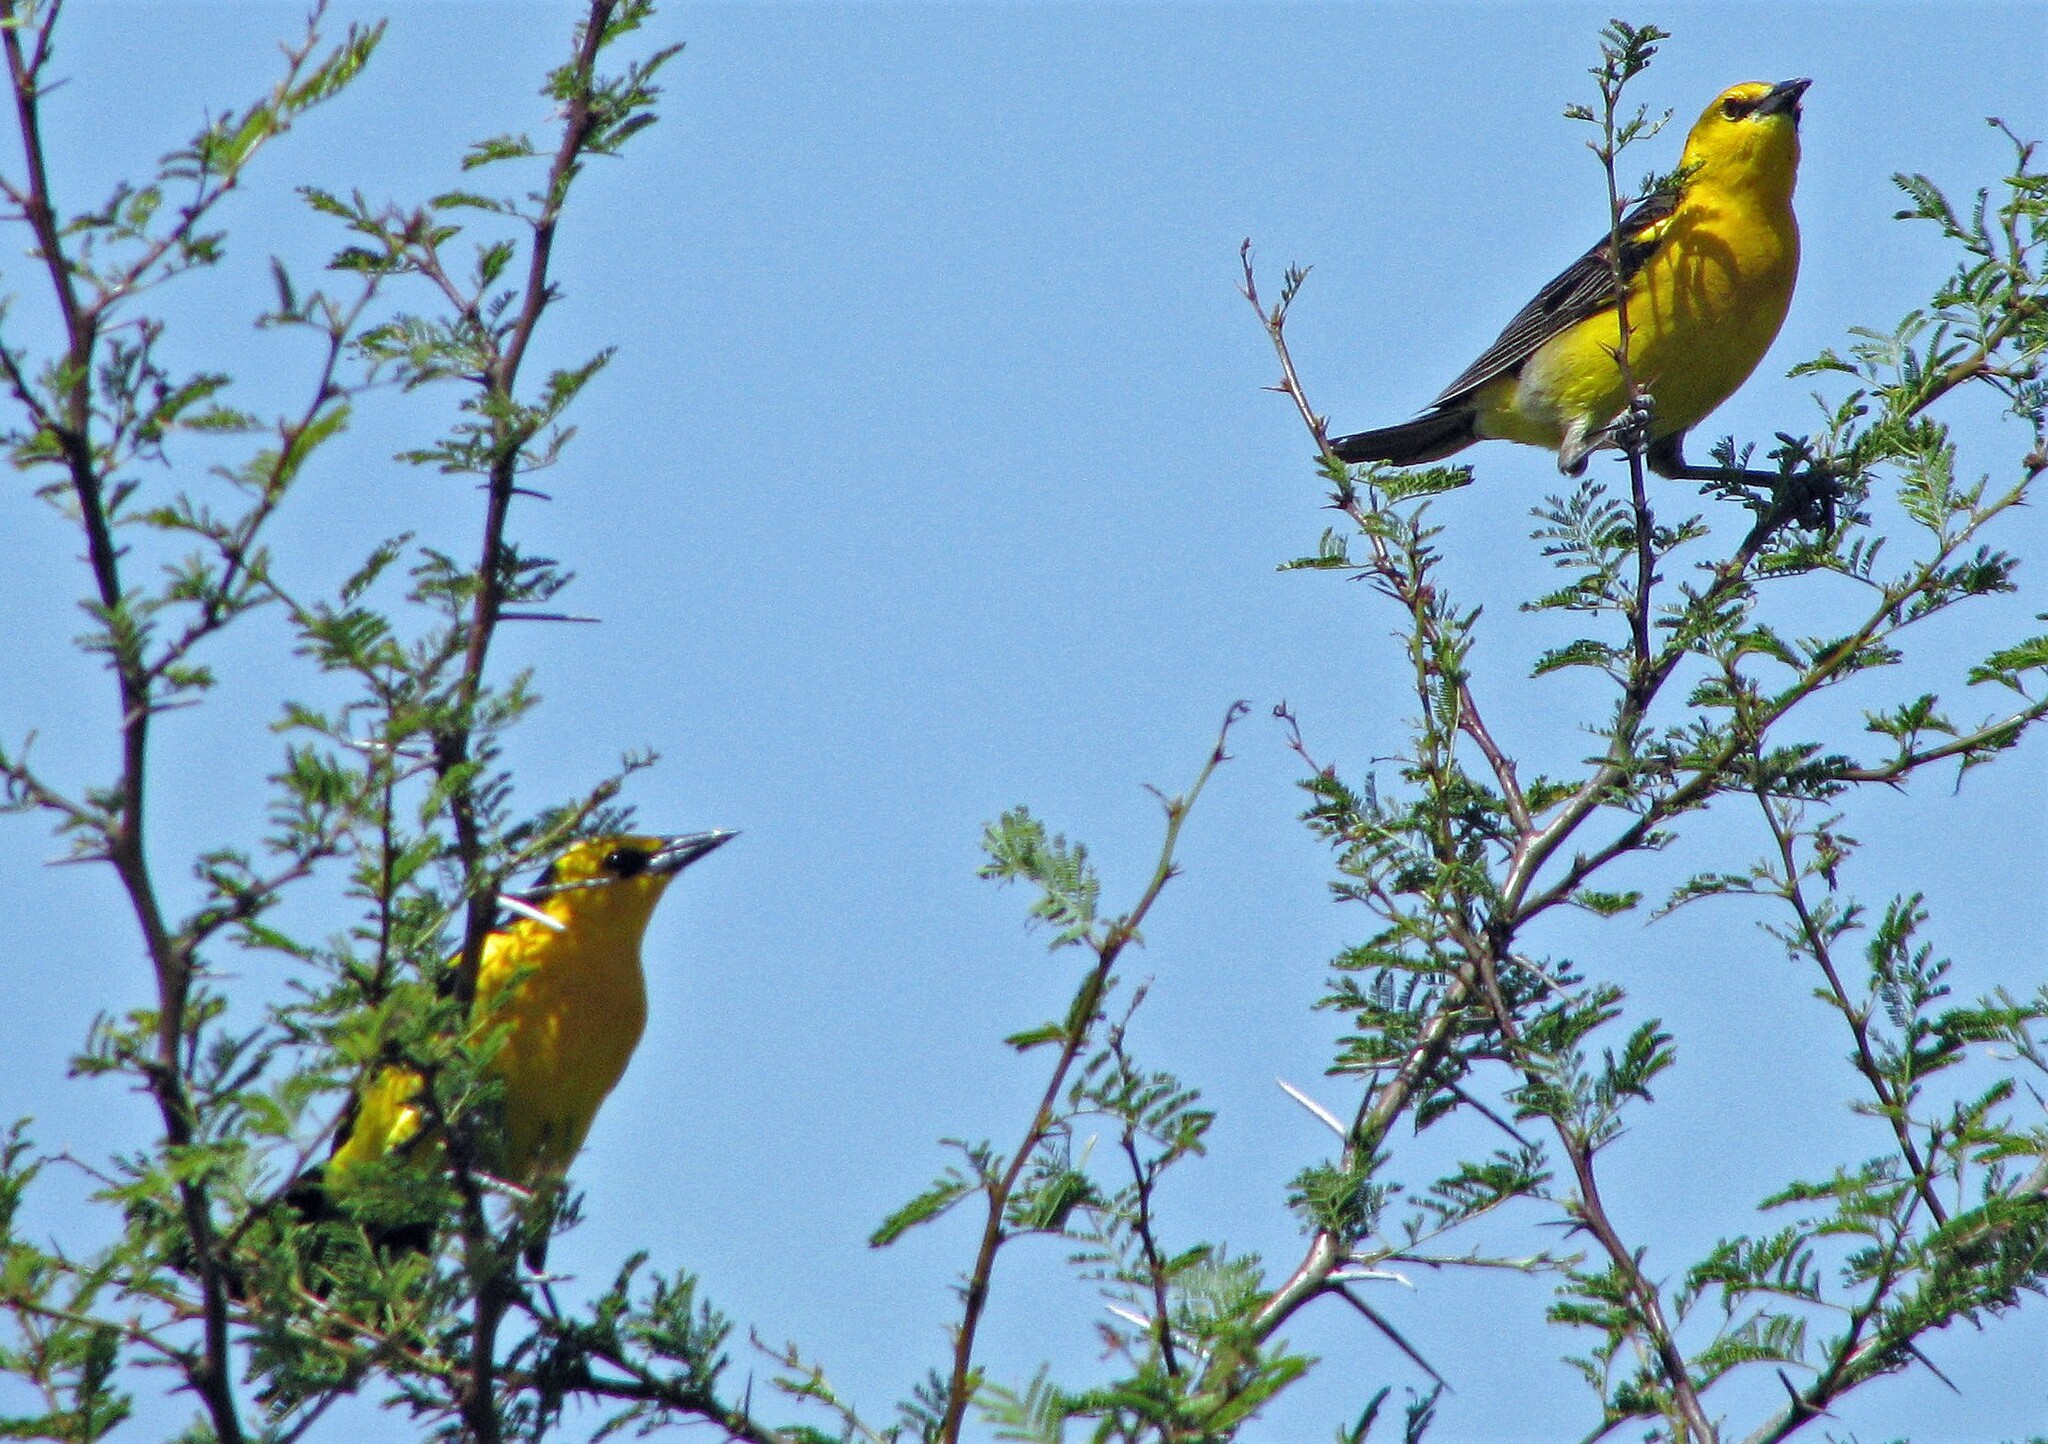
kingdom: Animalia
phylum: Chordata
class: Aves
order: Passeriformes
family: Icteridae
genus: Xanthopsar
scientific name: Xanthopsar flavus
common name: Saffron-cowled blackbird
